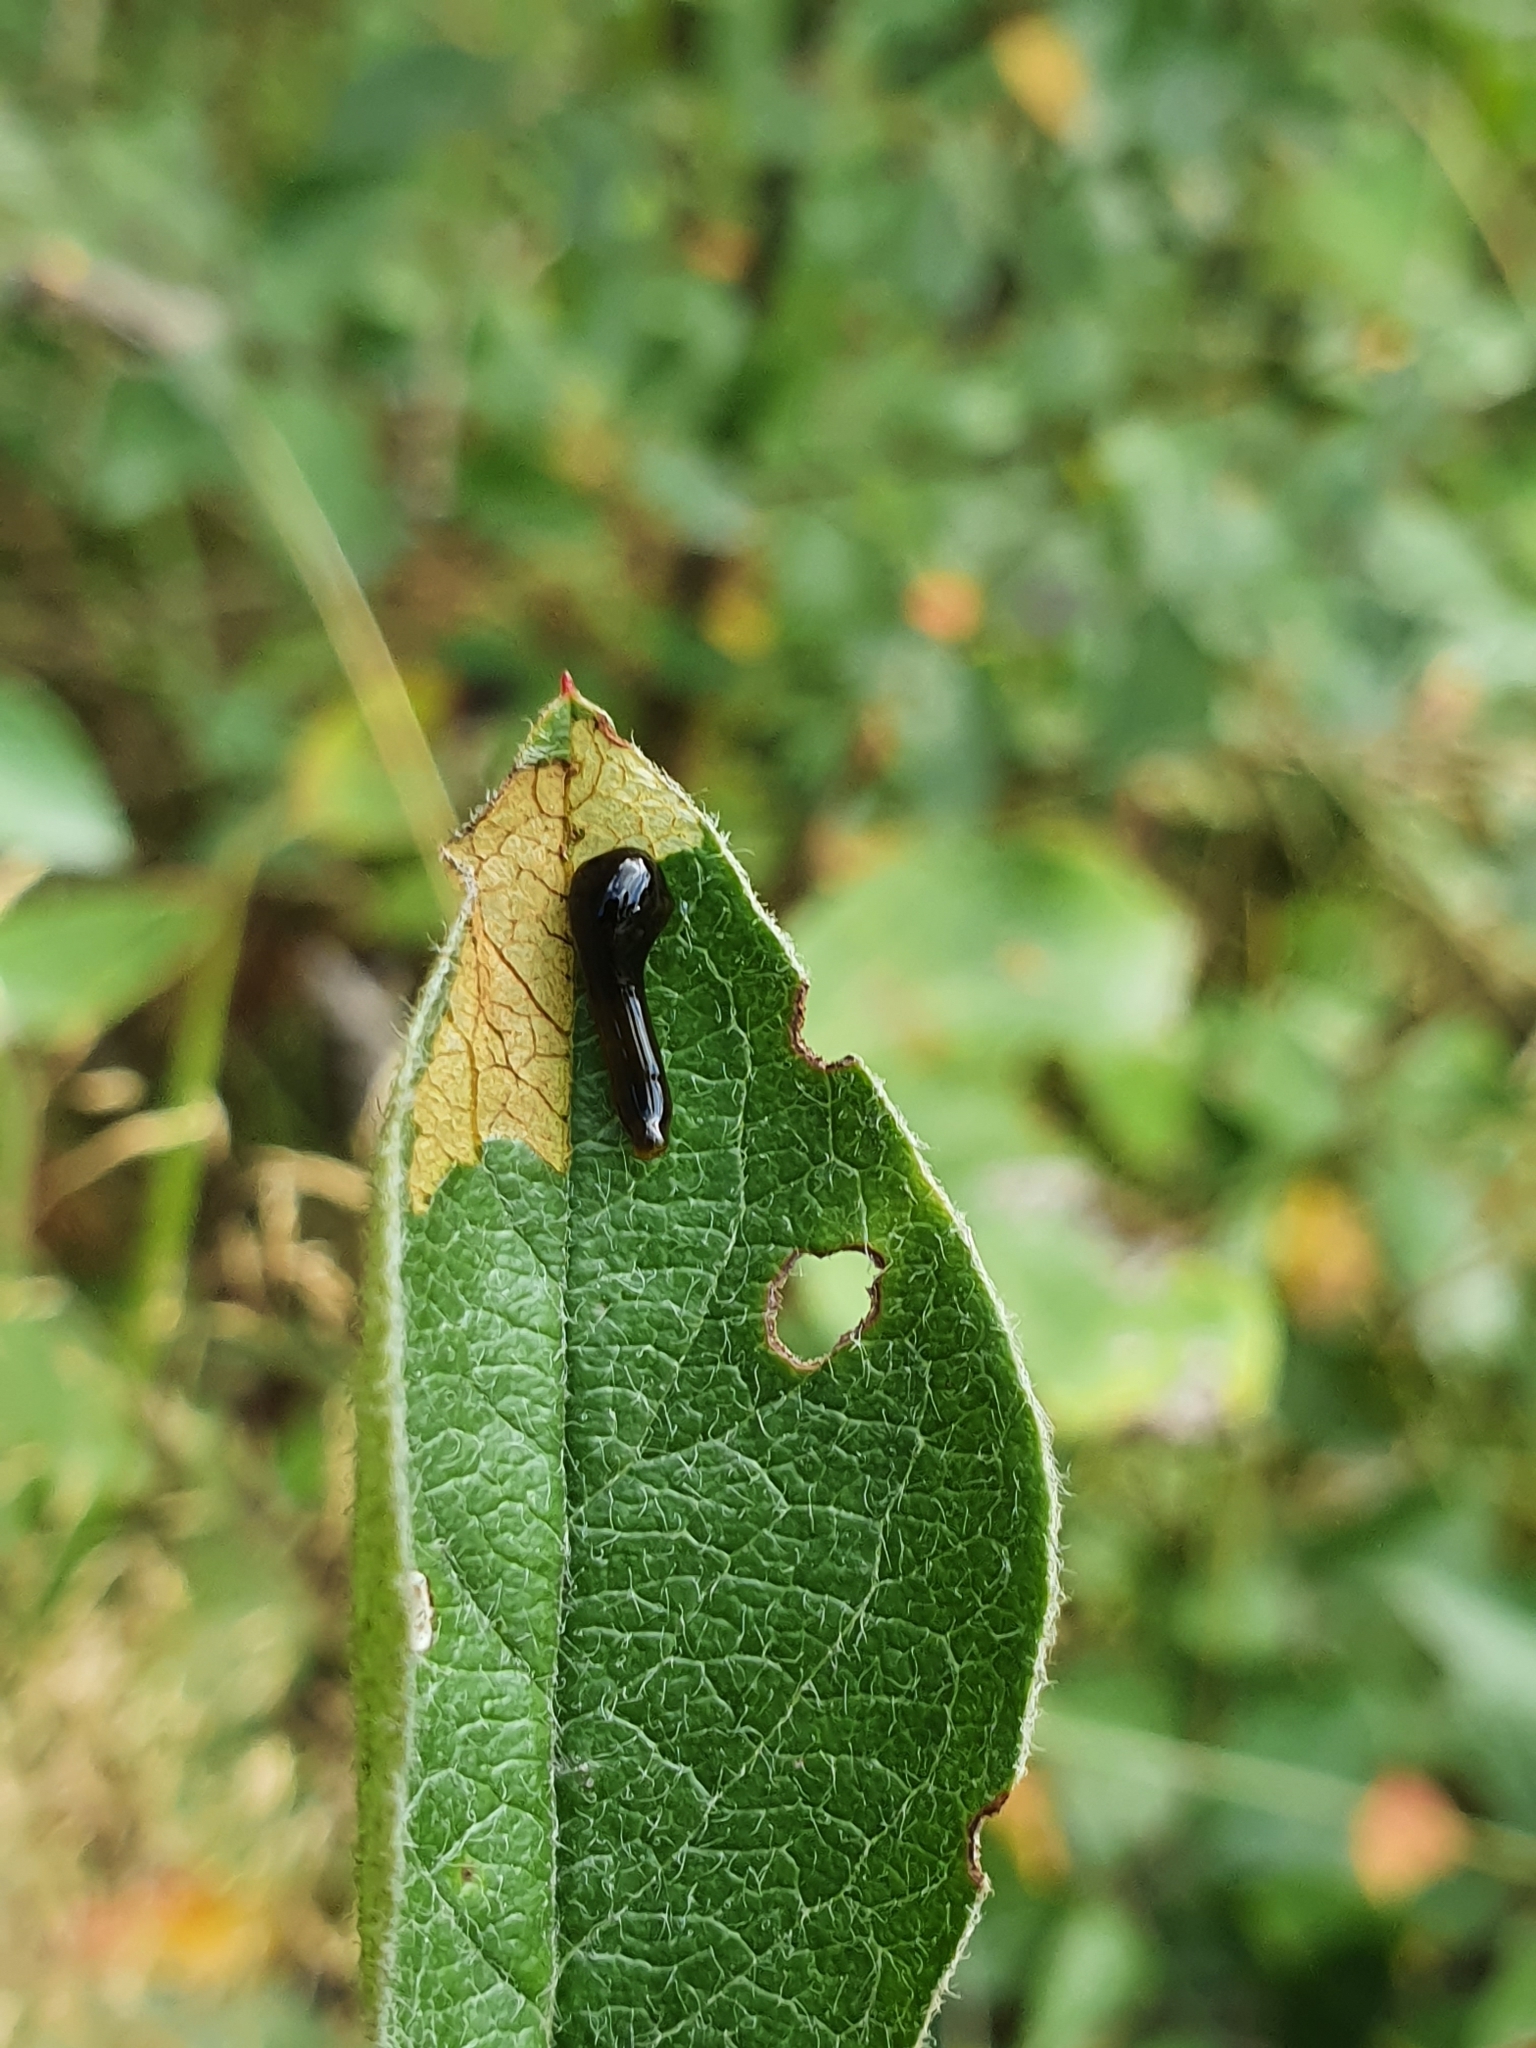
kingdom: Animalia
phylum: Arthropoda
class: Insecta
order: Hymenoptera
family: Tenthredinidae
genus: Caliroa
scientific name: Caliroa cerasi
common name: Pear sawfly
